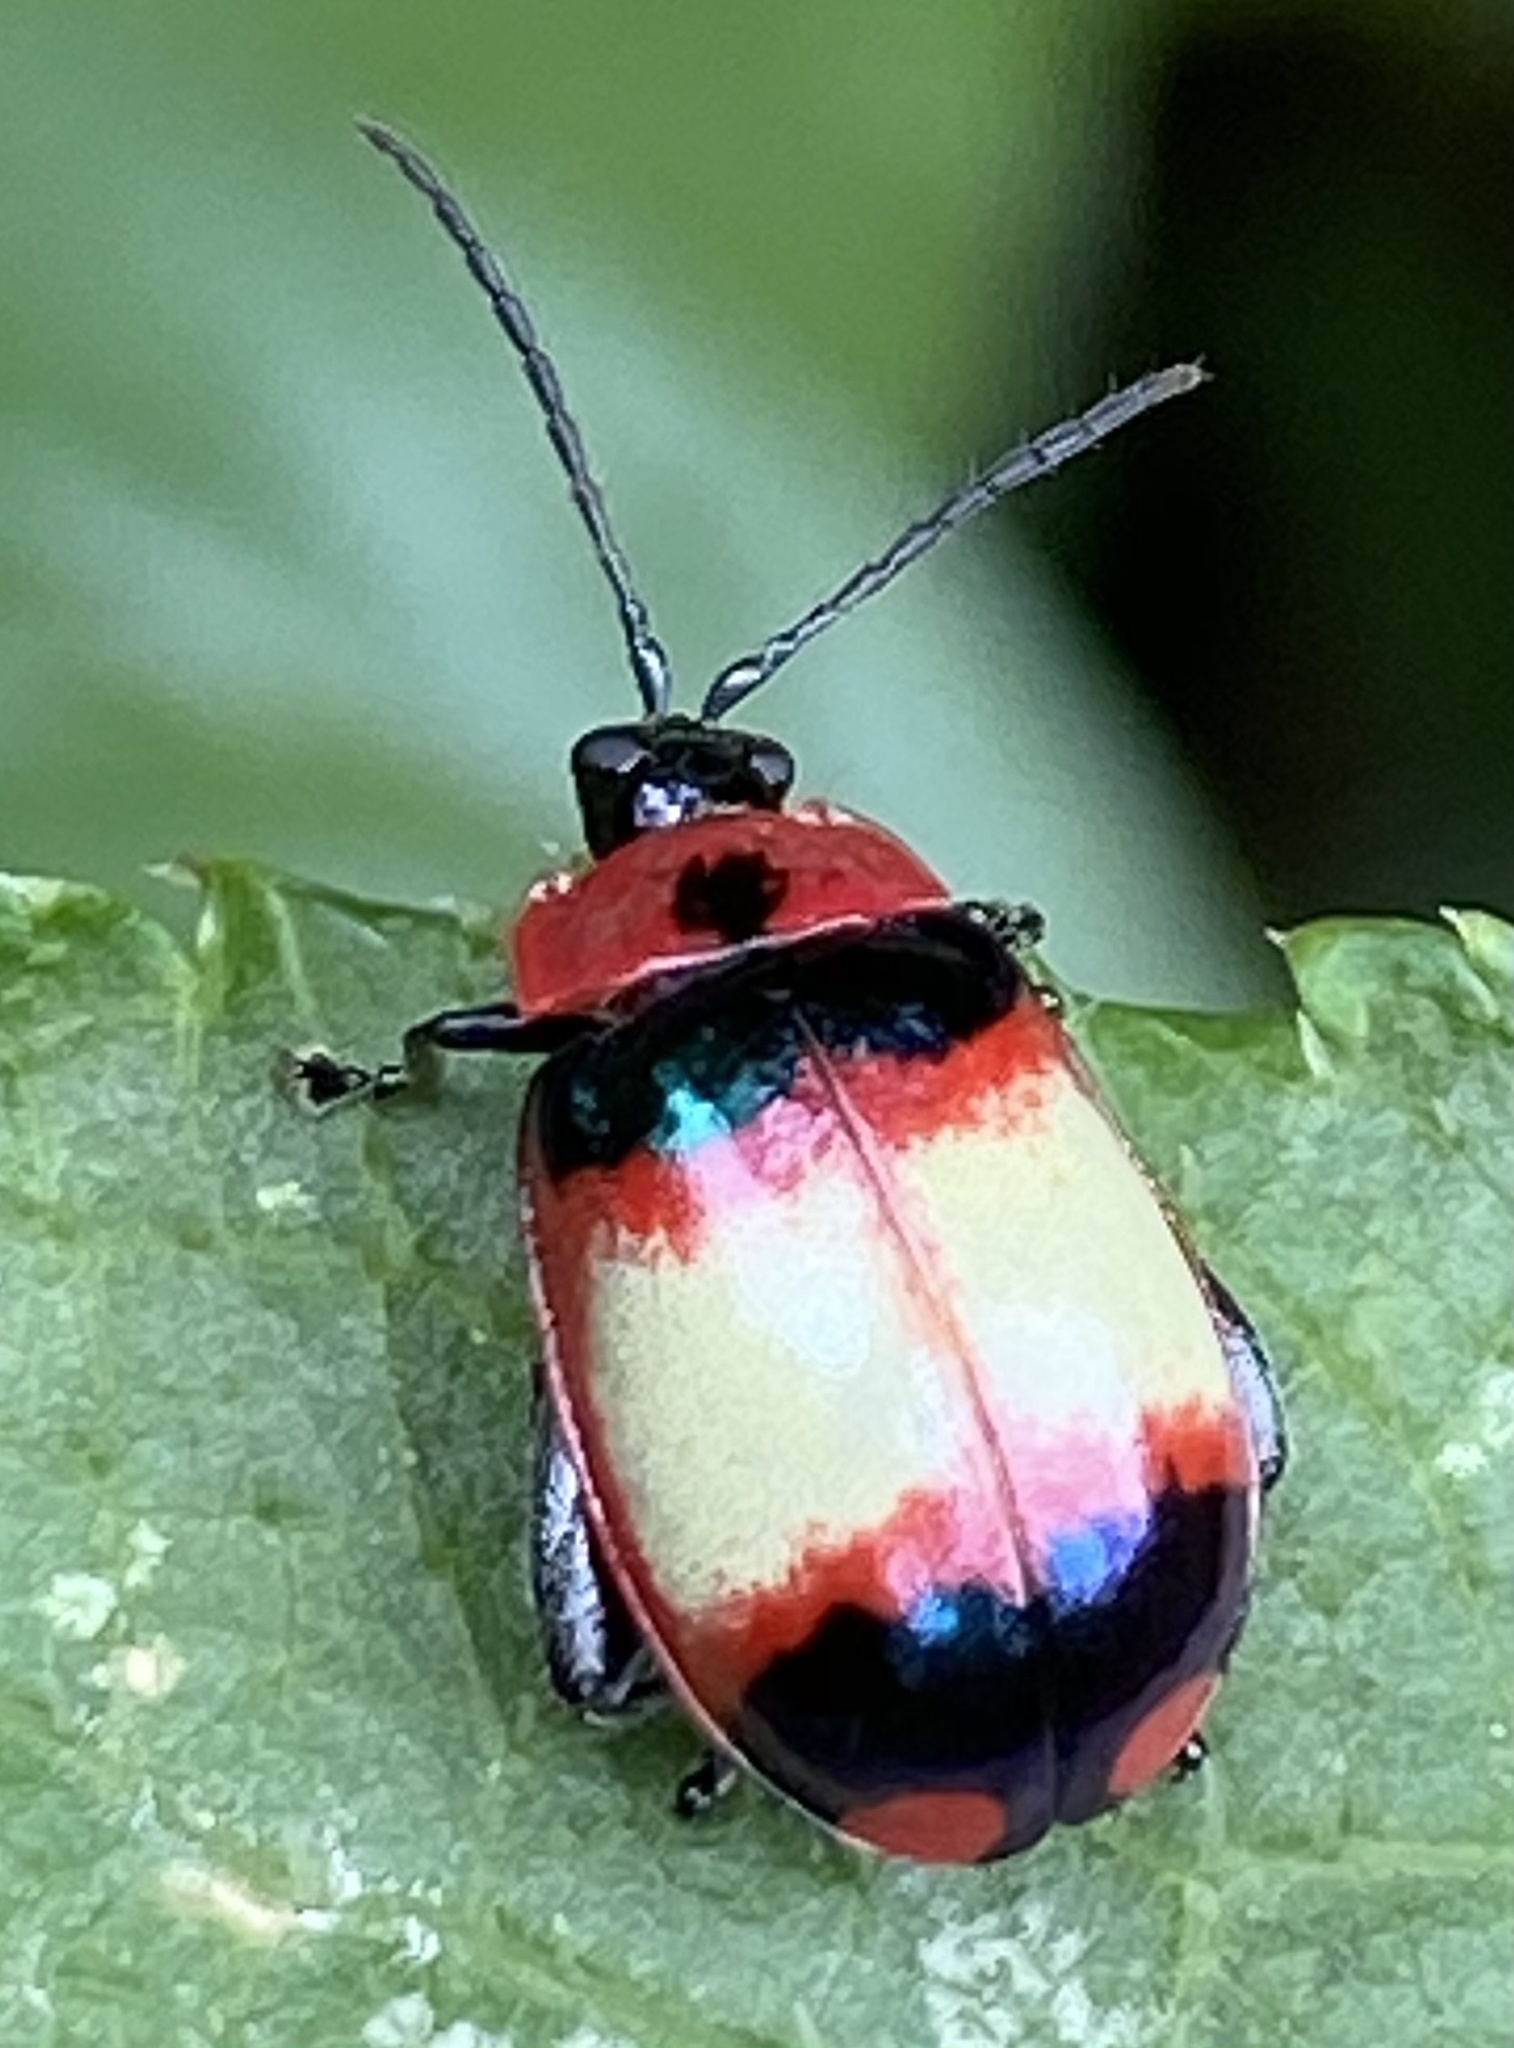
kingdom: Animalia
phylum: Arthropoda
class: Insecta
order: Coleoptera
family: Chrysomelidae
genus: Alagoasa
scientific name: Alagoasa
